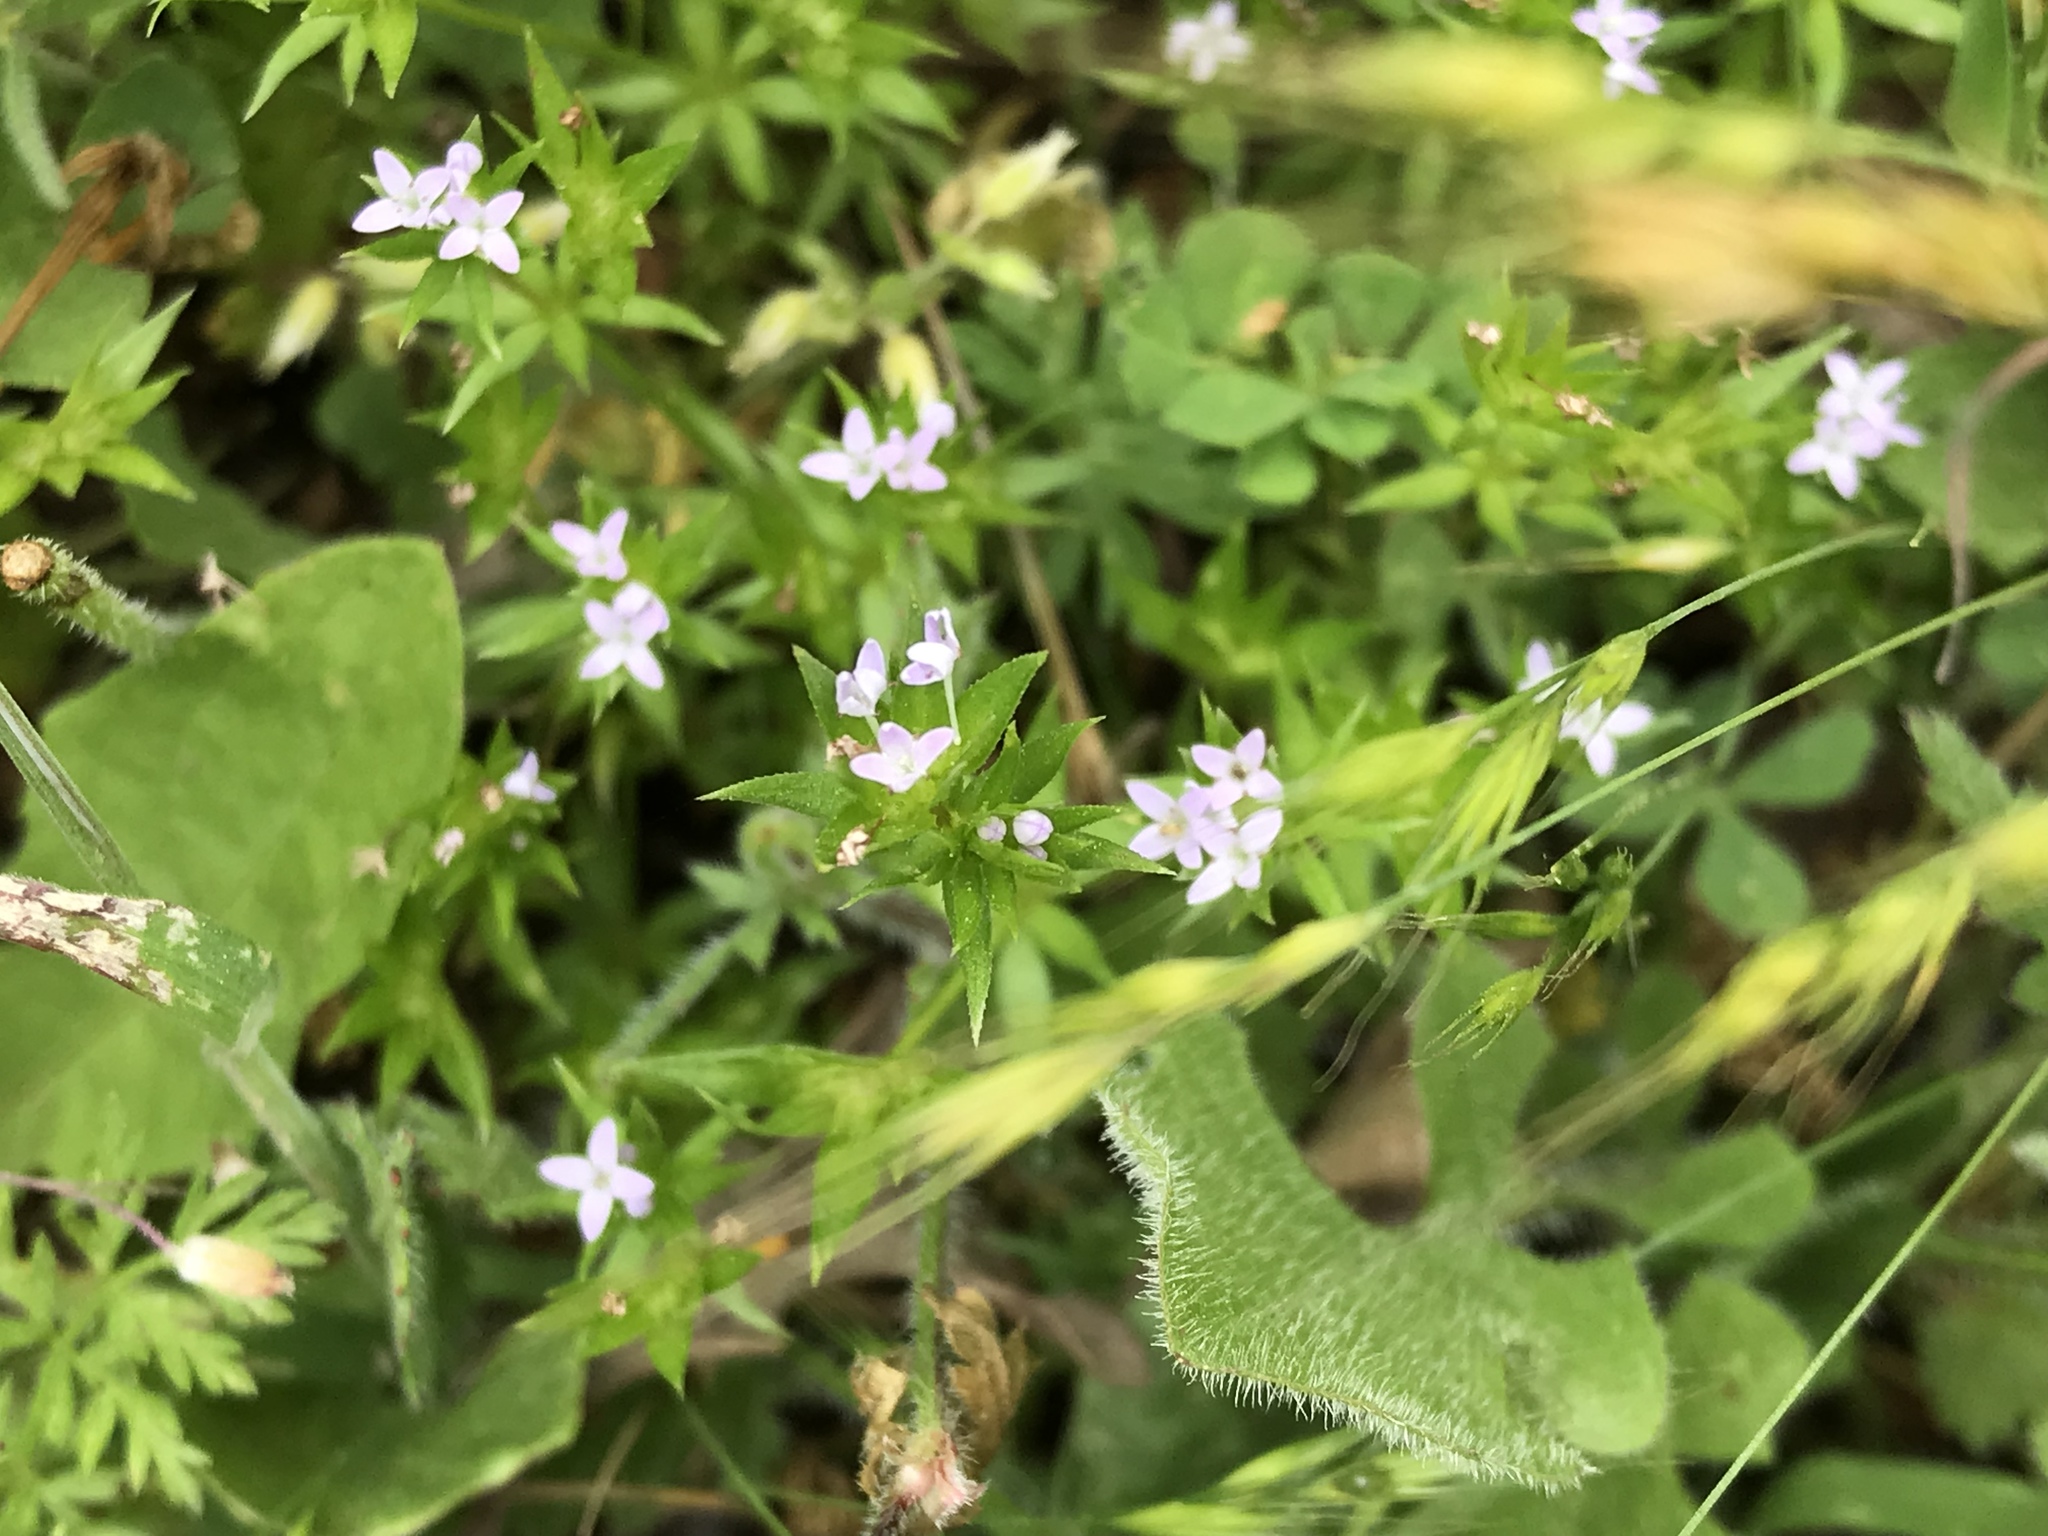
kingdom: Plantae
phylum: Tracheophyta
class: Magnoliopsida
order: Gentianales
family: Rubiaceae
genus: Sherardia
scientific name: Sherardia arvensis
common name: Field madder
